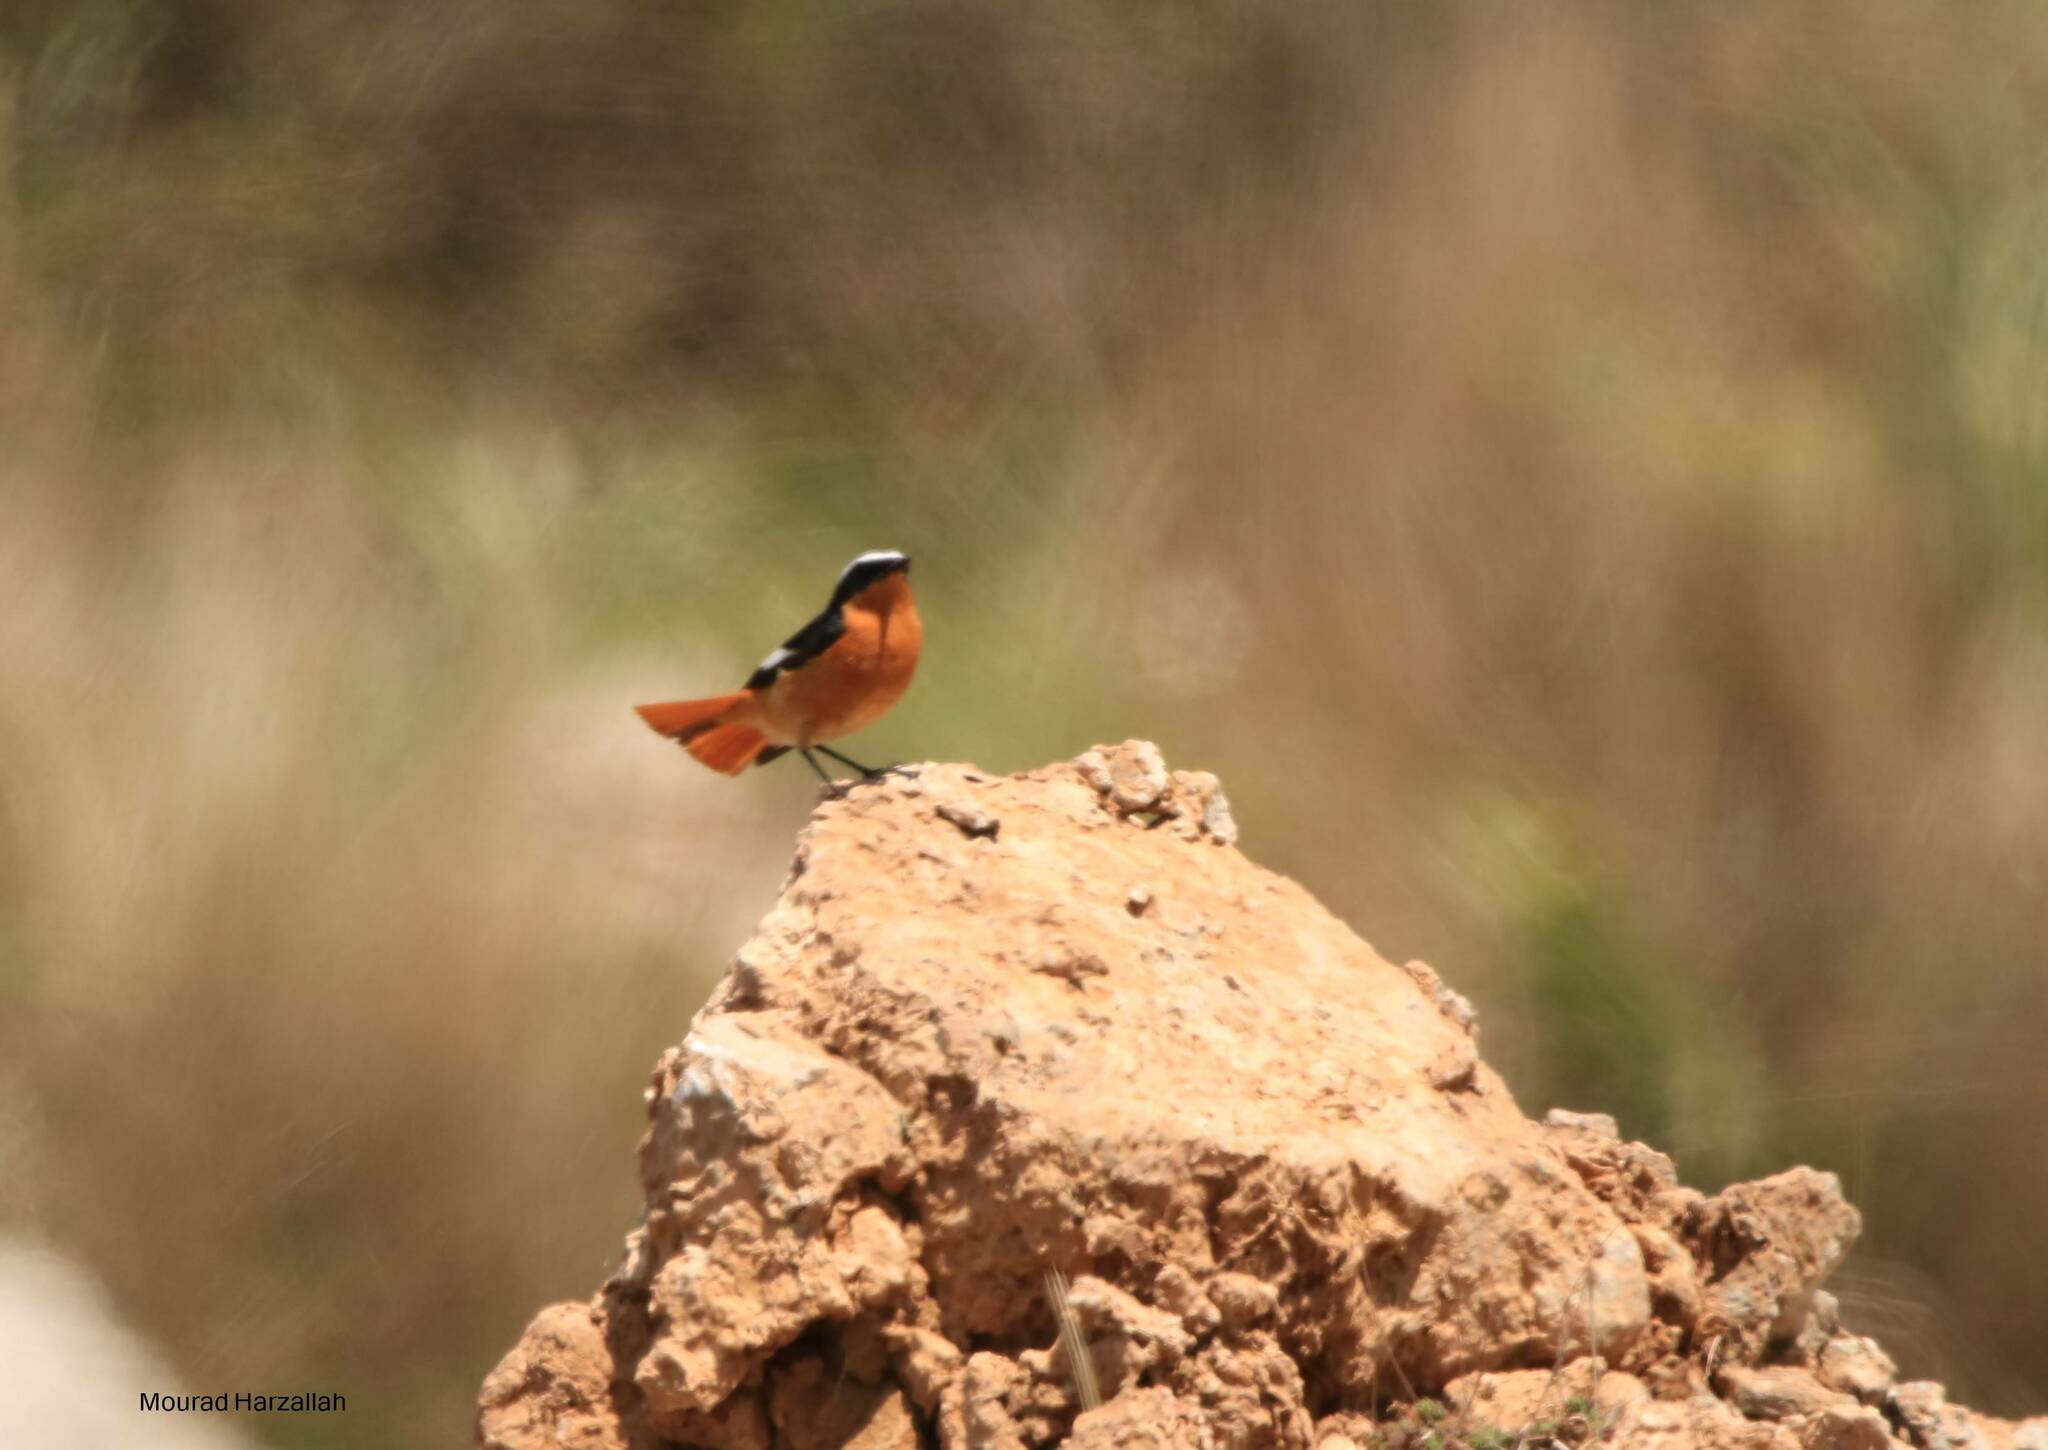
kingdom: Animalia
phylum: Chordata
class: Aves
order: Passeriformes
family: Muscicapidae
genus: Phoenicurus
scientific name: Phoenicurus moussieri
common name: Moussier's redstart
